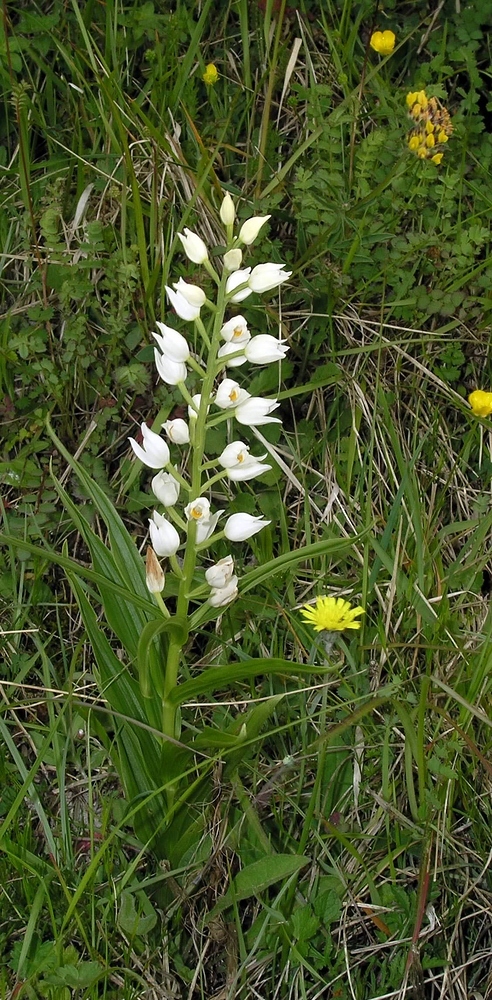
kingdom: Plantae
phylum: Tracheophyta
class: Liliopsida
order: Asparagales
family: Orchidaceae
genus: Cephalanthera
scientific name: Cephalanthera longifolia
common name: Narrow-leaved helleborine
